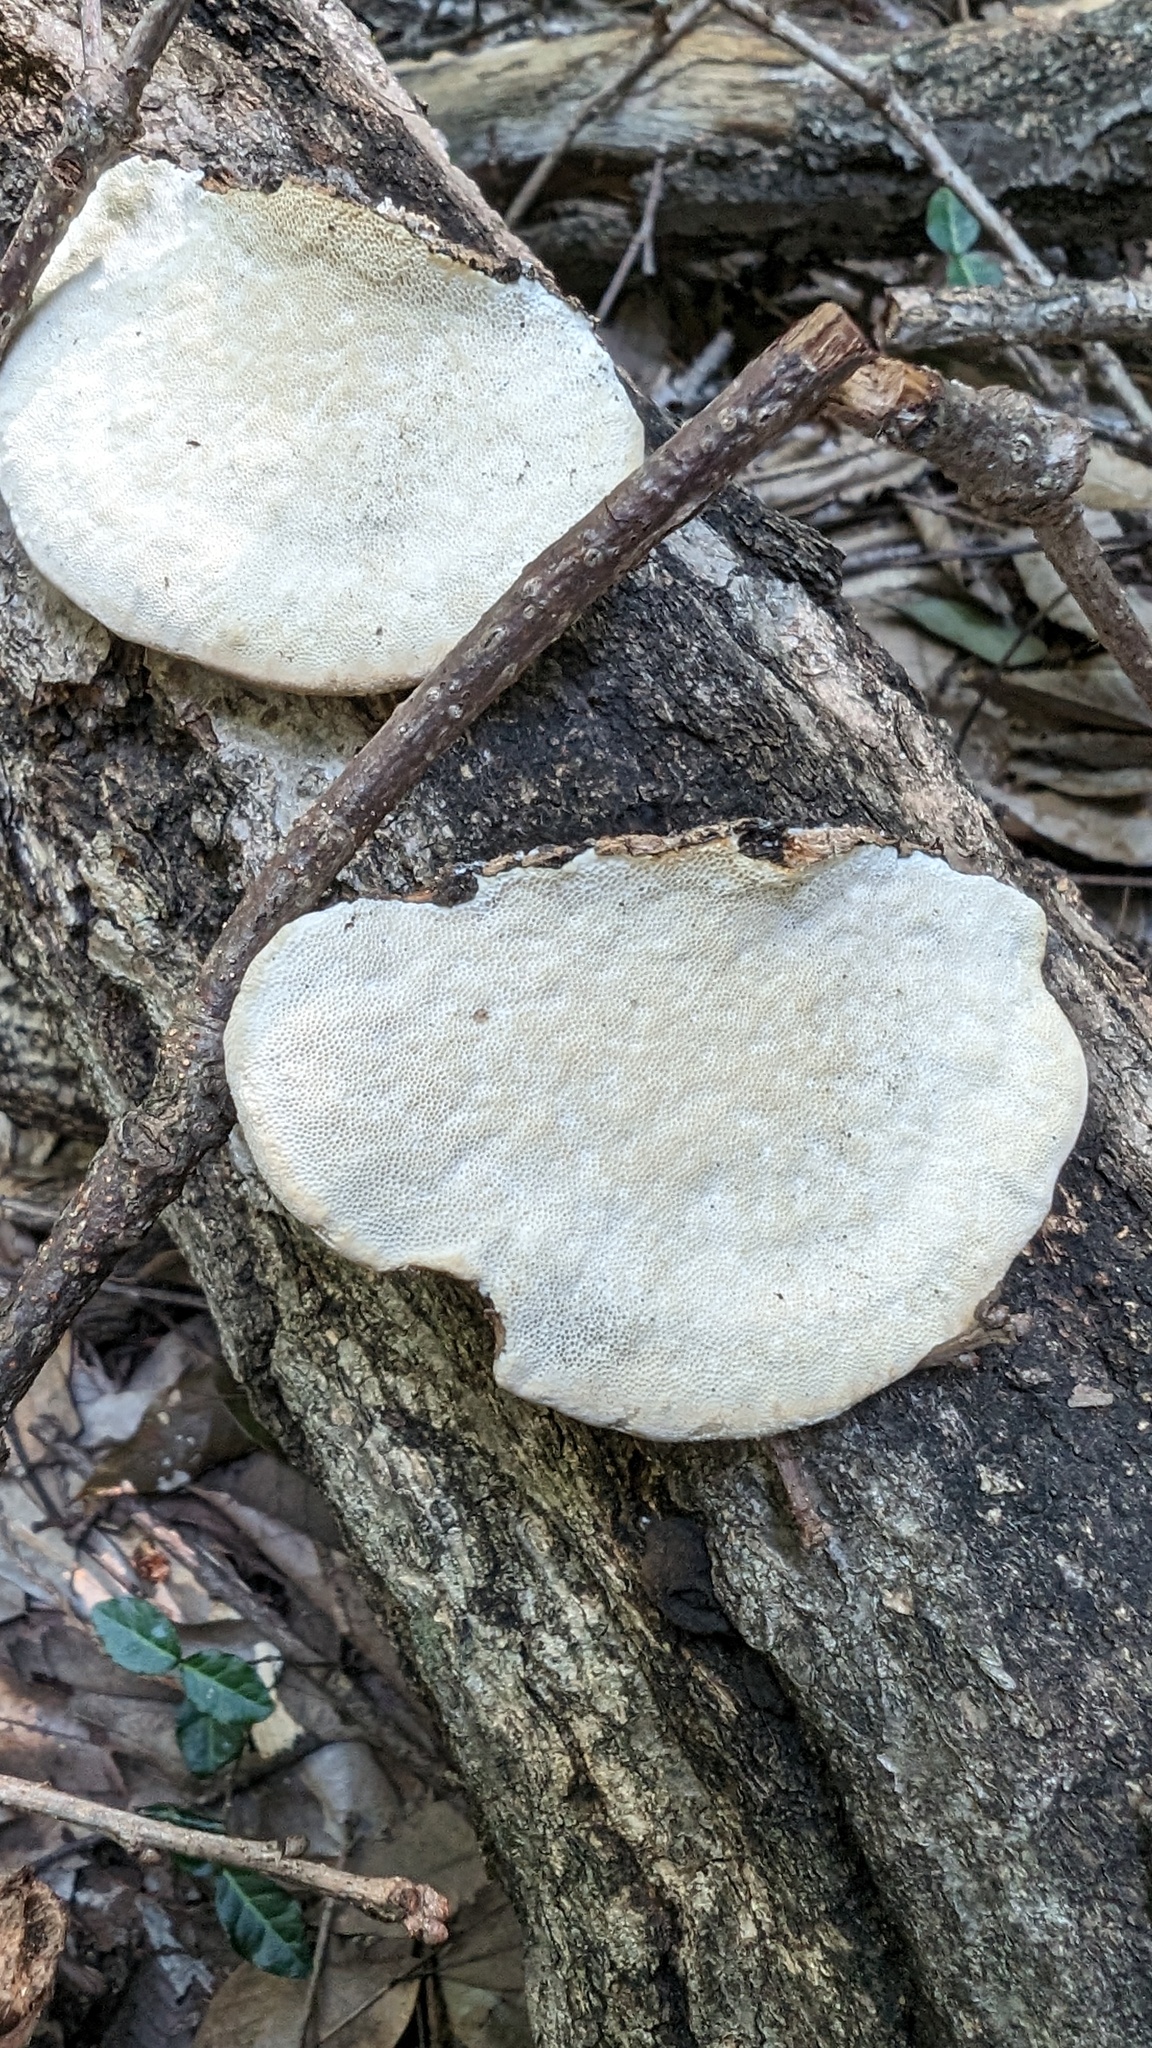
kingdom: Fungi
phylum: Basidiomycota
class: Agaricomycetes
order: Polyporales
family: Polyporaceae
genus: Trametes
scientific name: Trametes orientalis
